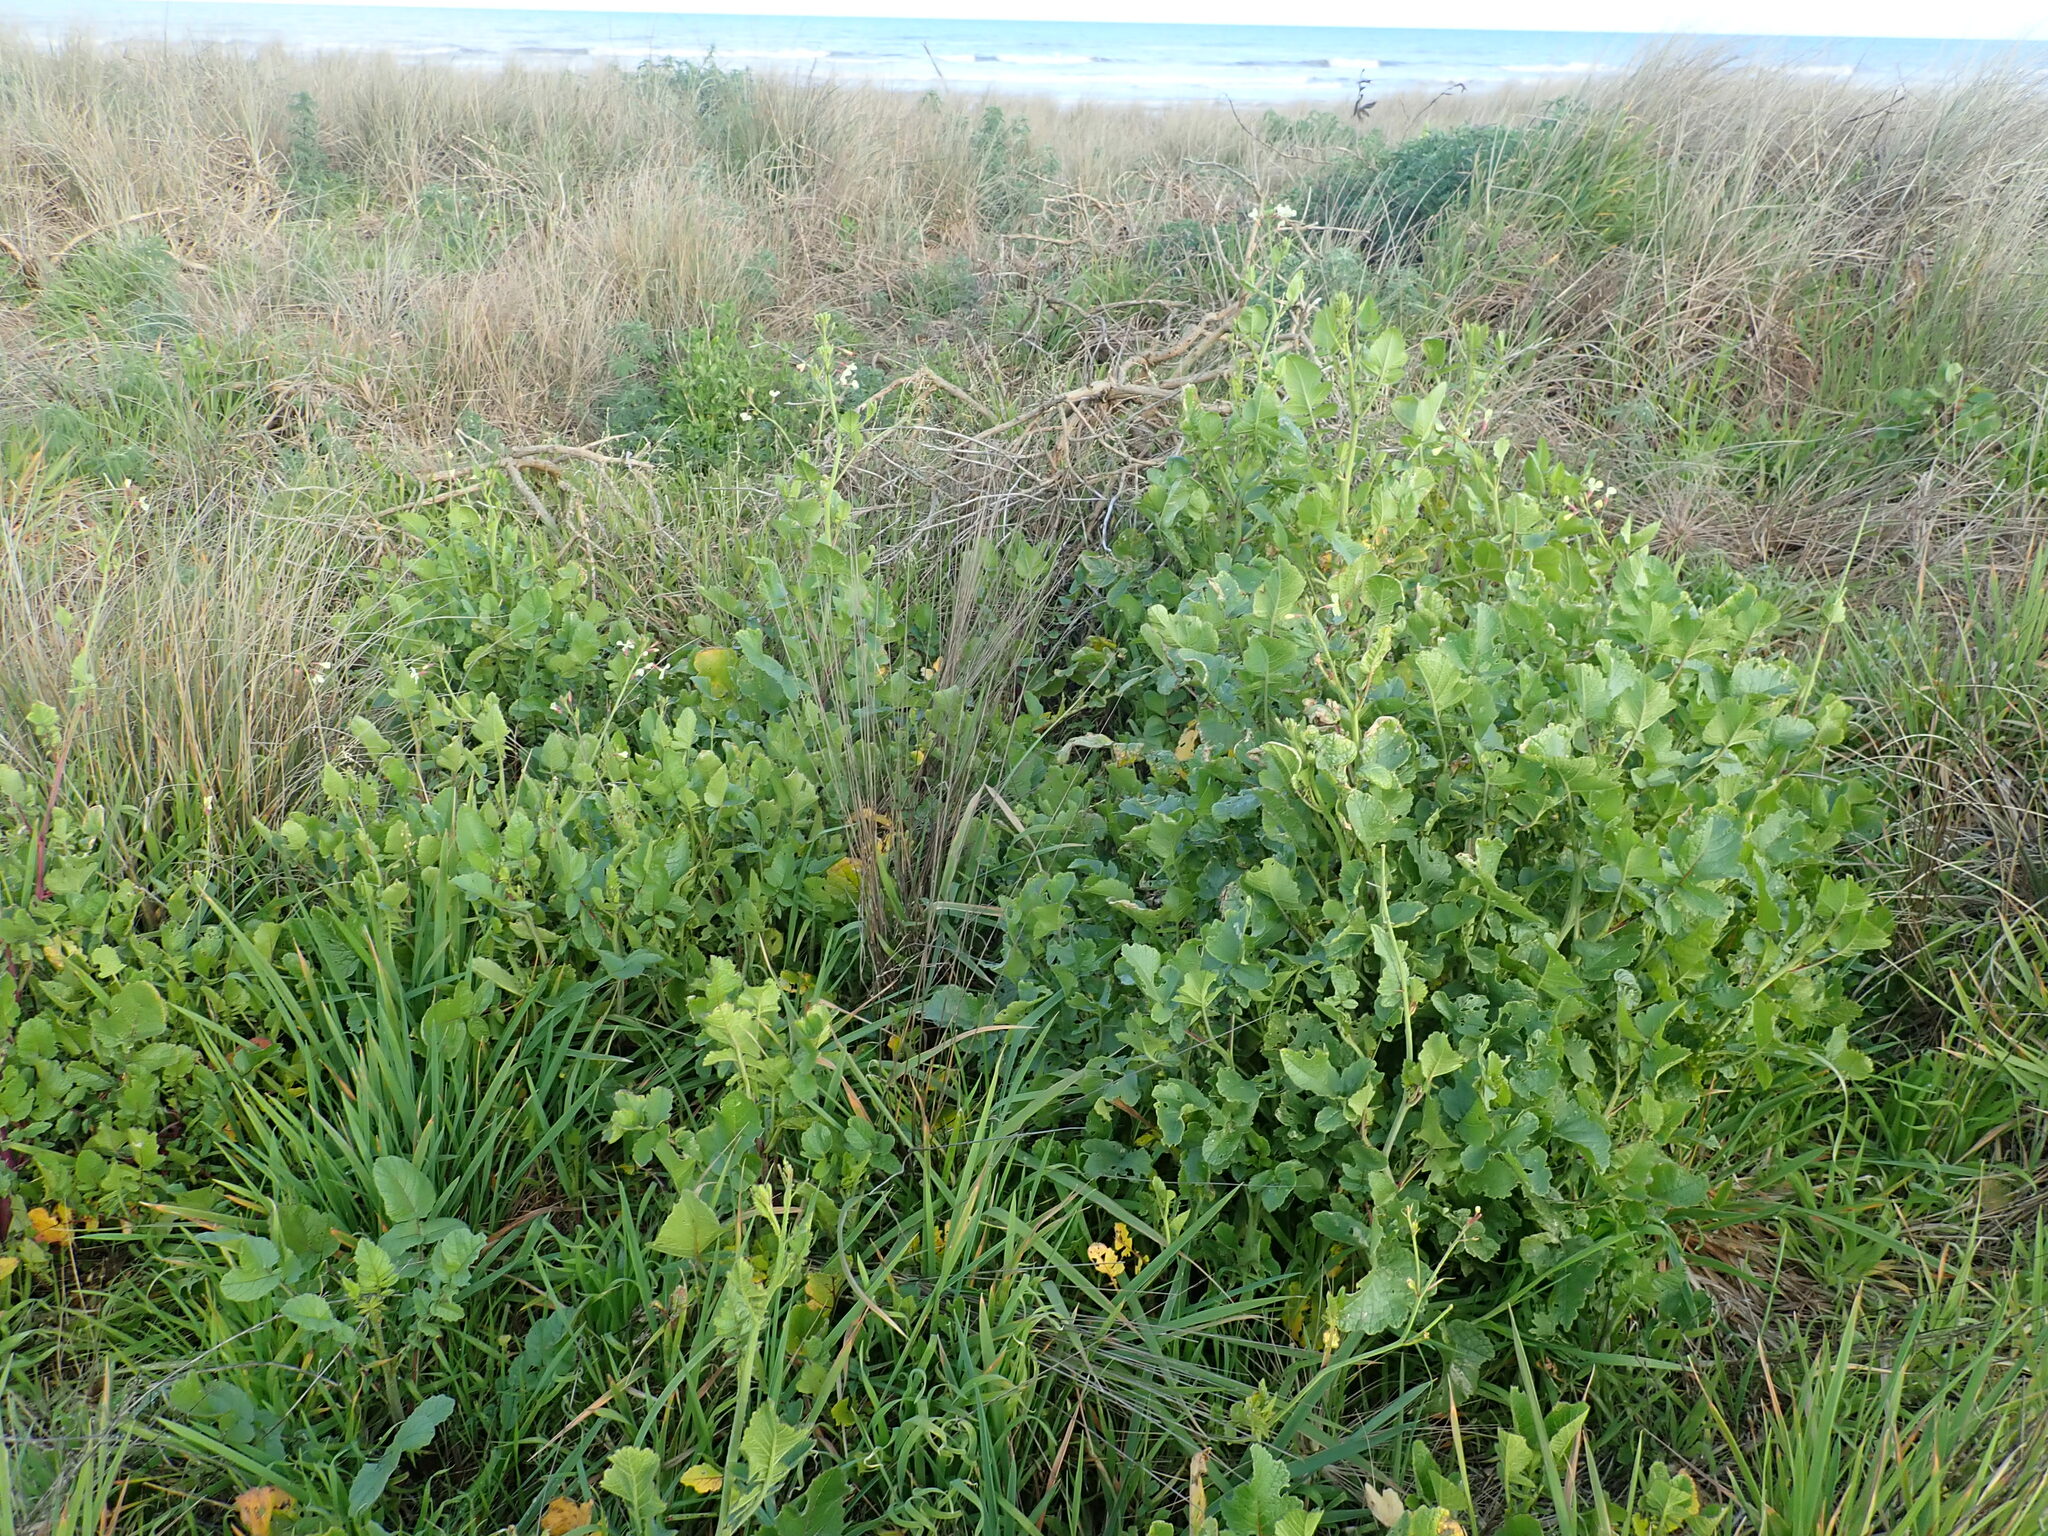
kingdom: Plantae
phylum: Tracheophyta
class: Magnoliopsida
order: Brassicales
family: Brassicaceae
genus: Raphanus
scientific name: Raphanus raphanistrum
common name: Wild radish
